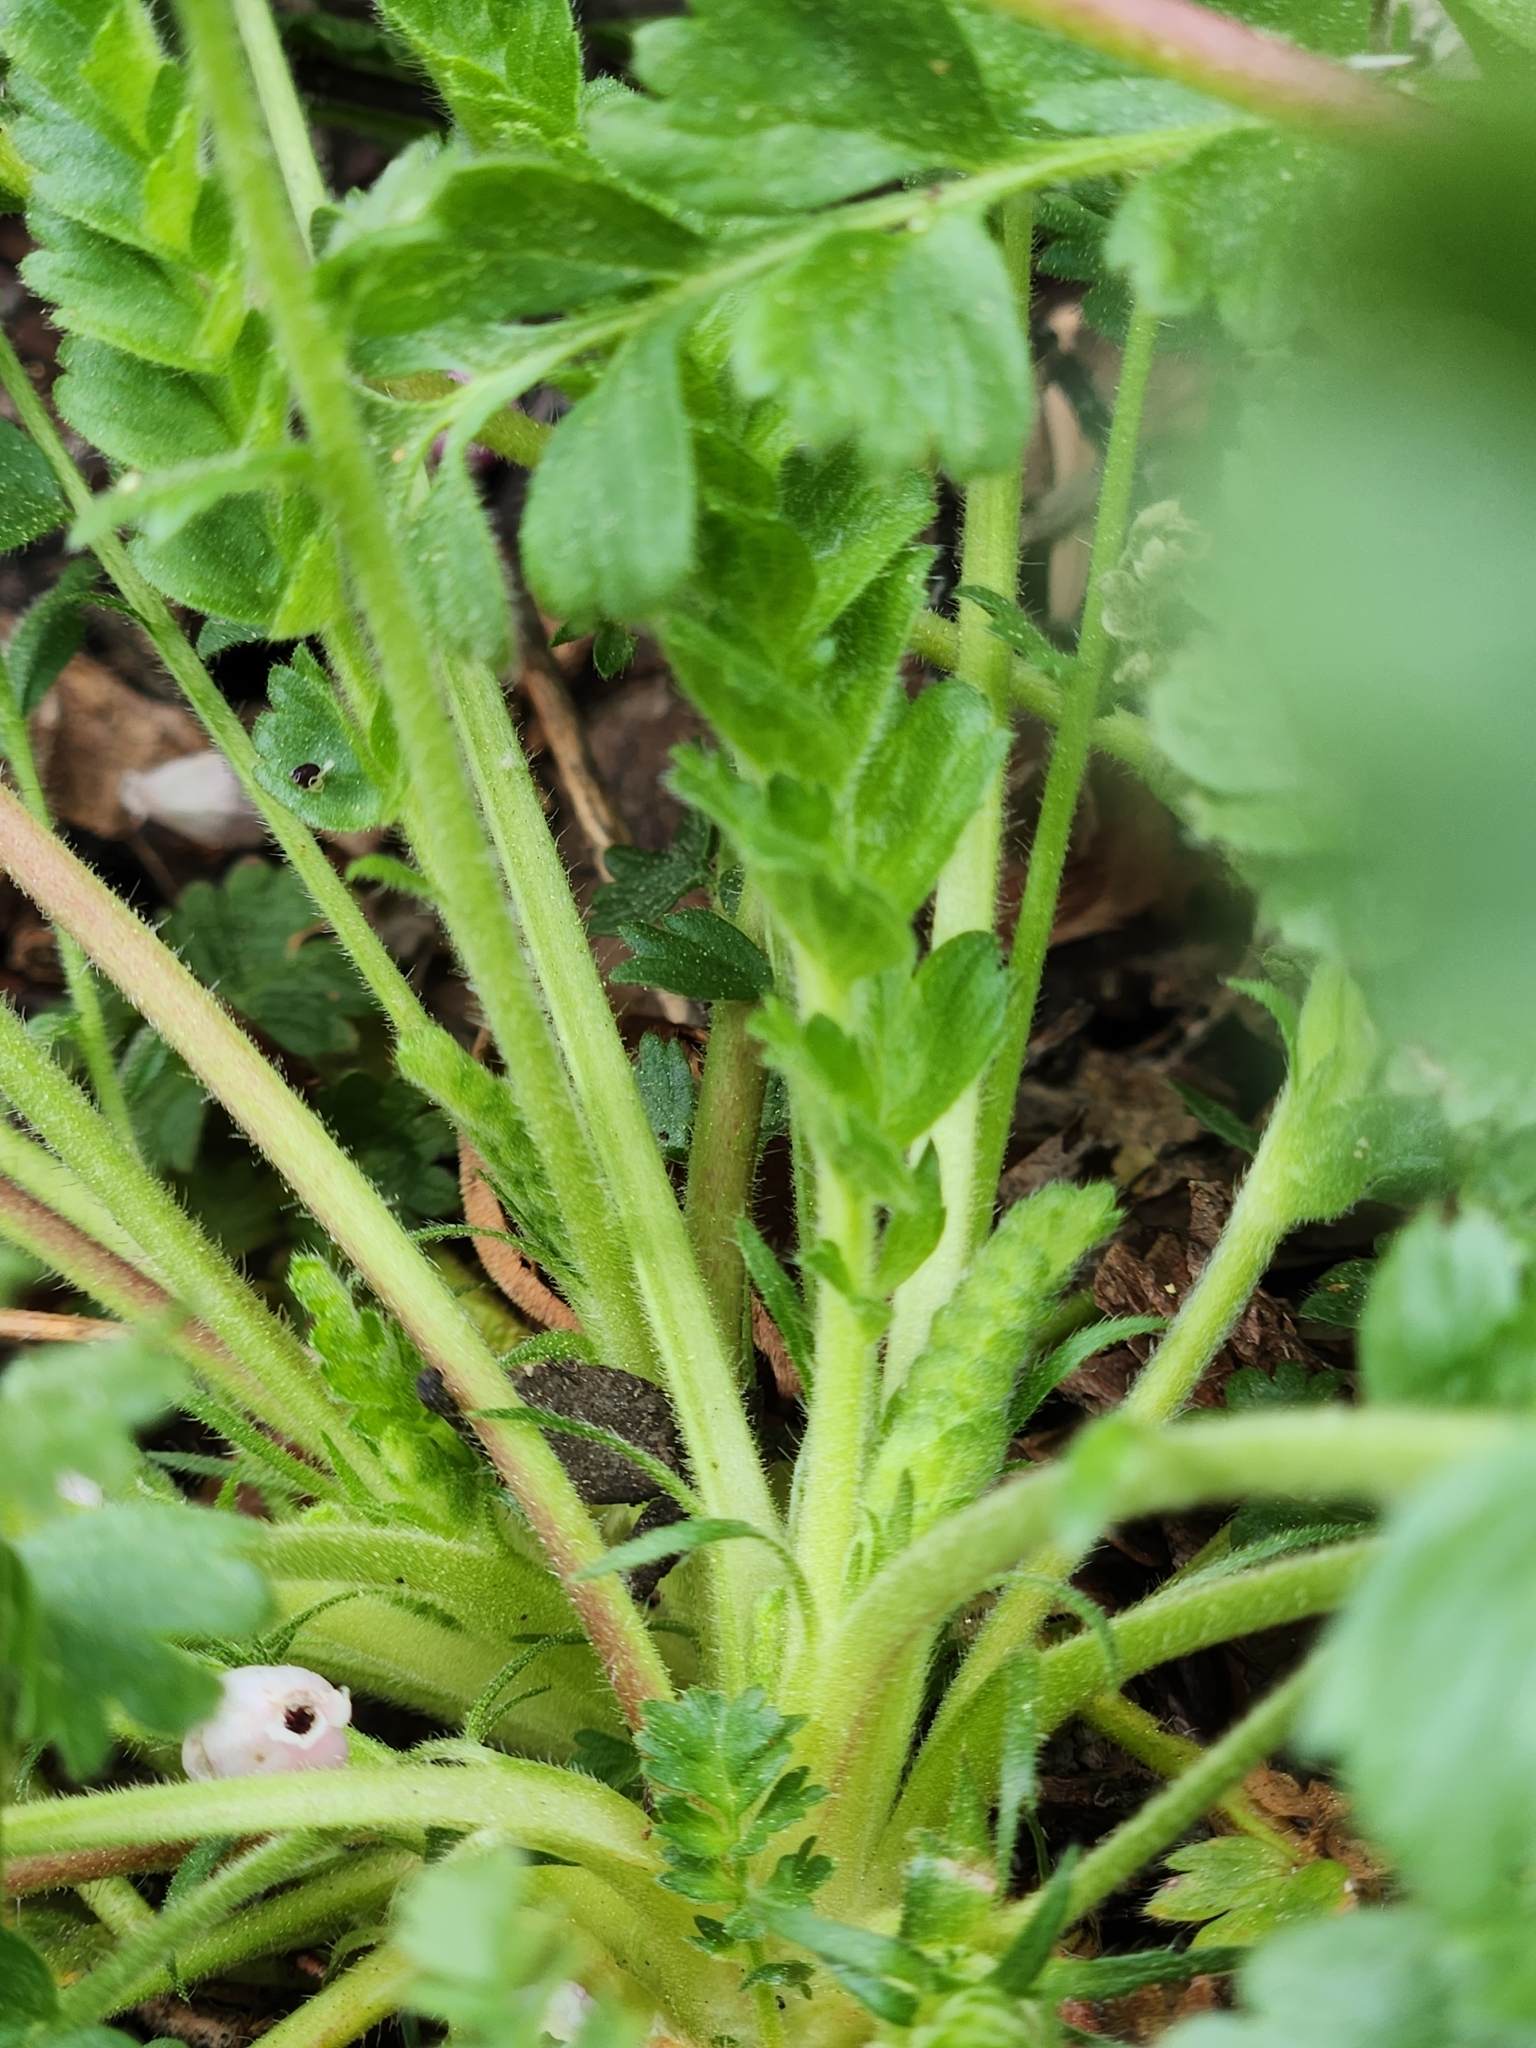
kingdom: Plantae
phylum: Tracheophyta
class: Magnoliopsida
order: Rosales
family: Rosaceae
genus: Potentilla
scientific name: Potentilla clevelandii
